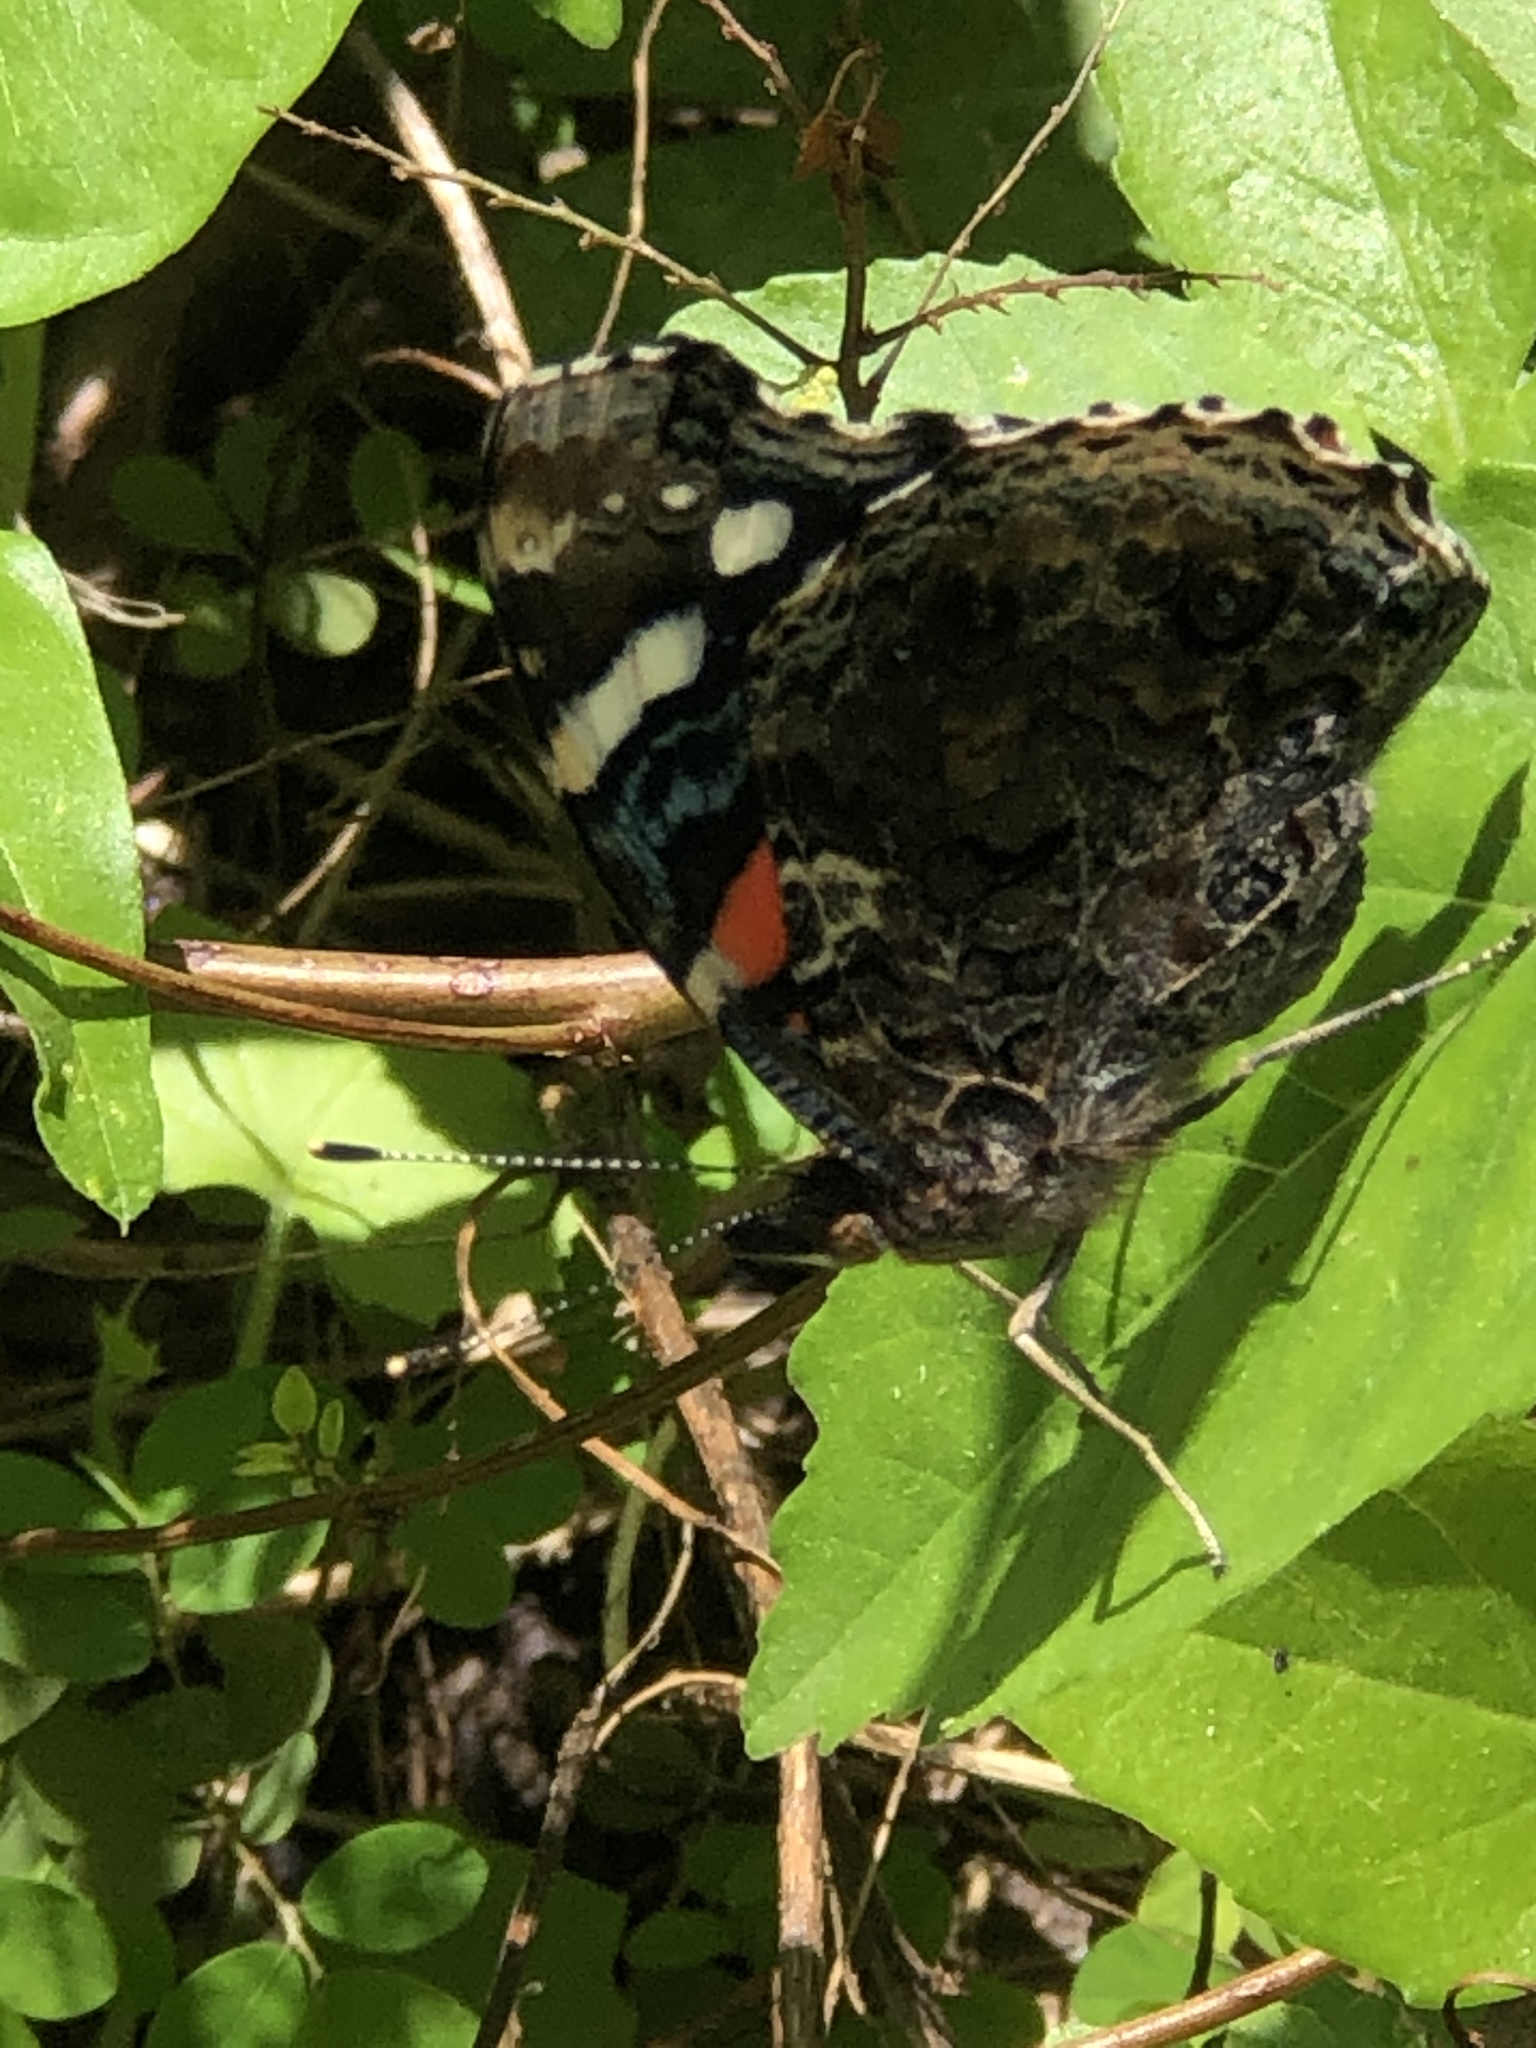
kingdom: Animalia
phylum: Arthropoda
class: Insecta
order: Lepidoptera
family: Nymphalidae
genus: Vanessa
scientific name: Vanessa atalanta
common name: Red admiral
